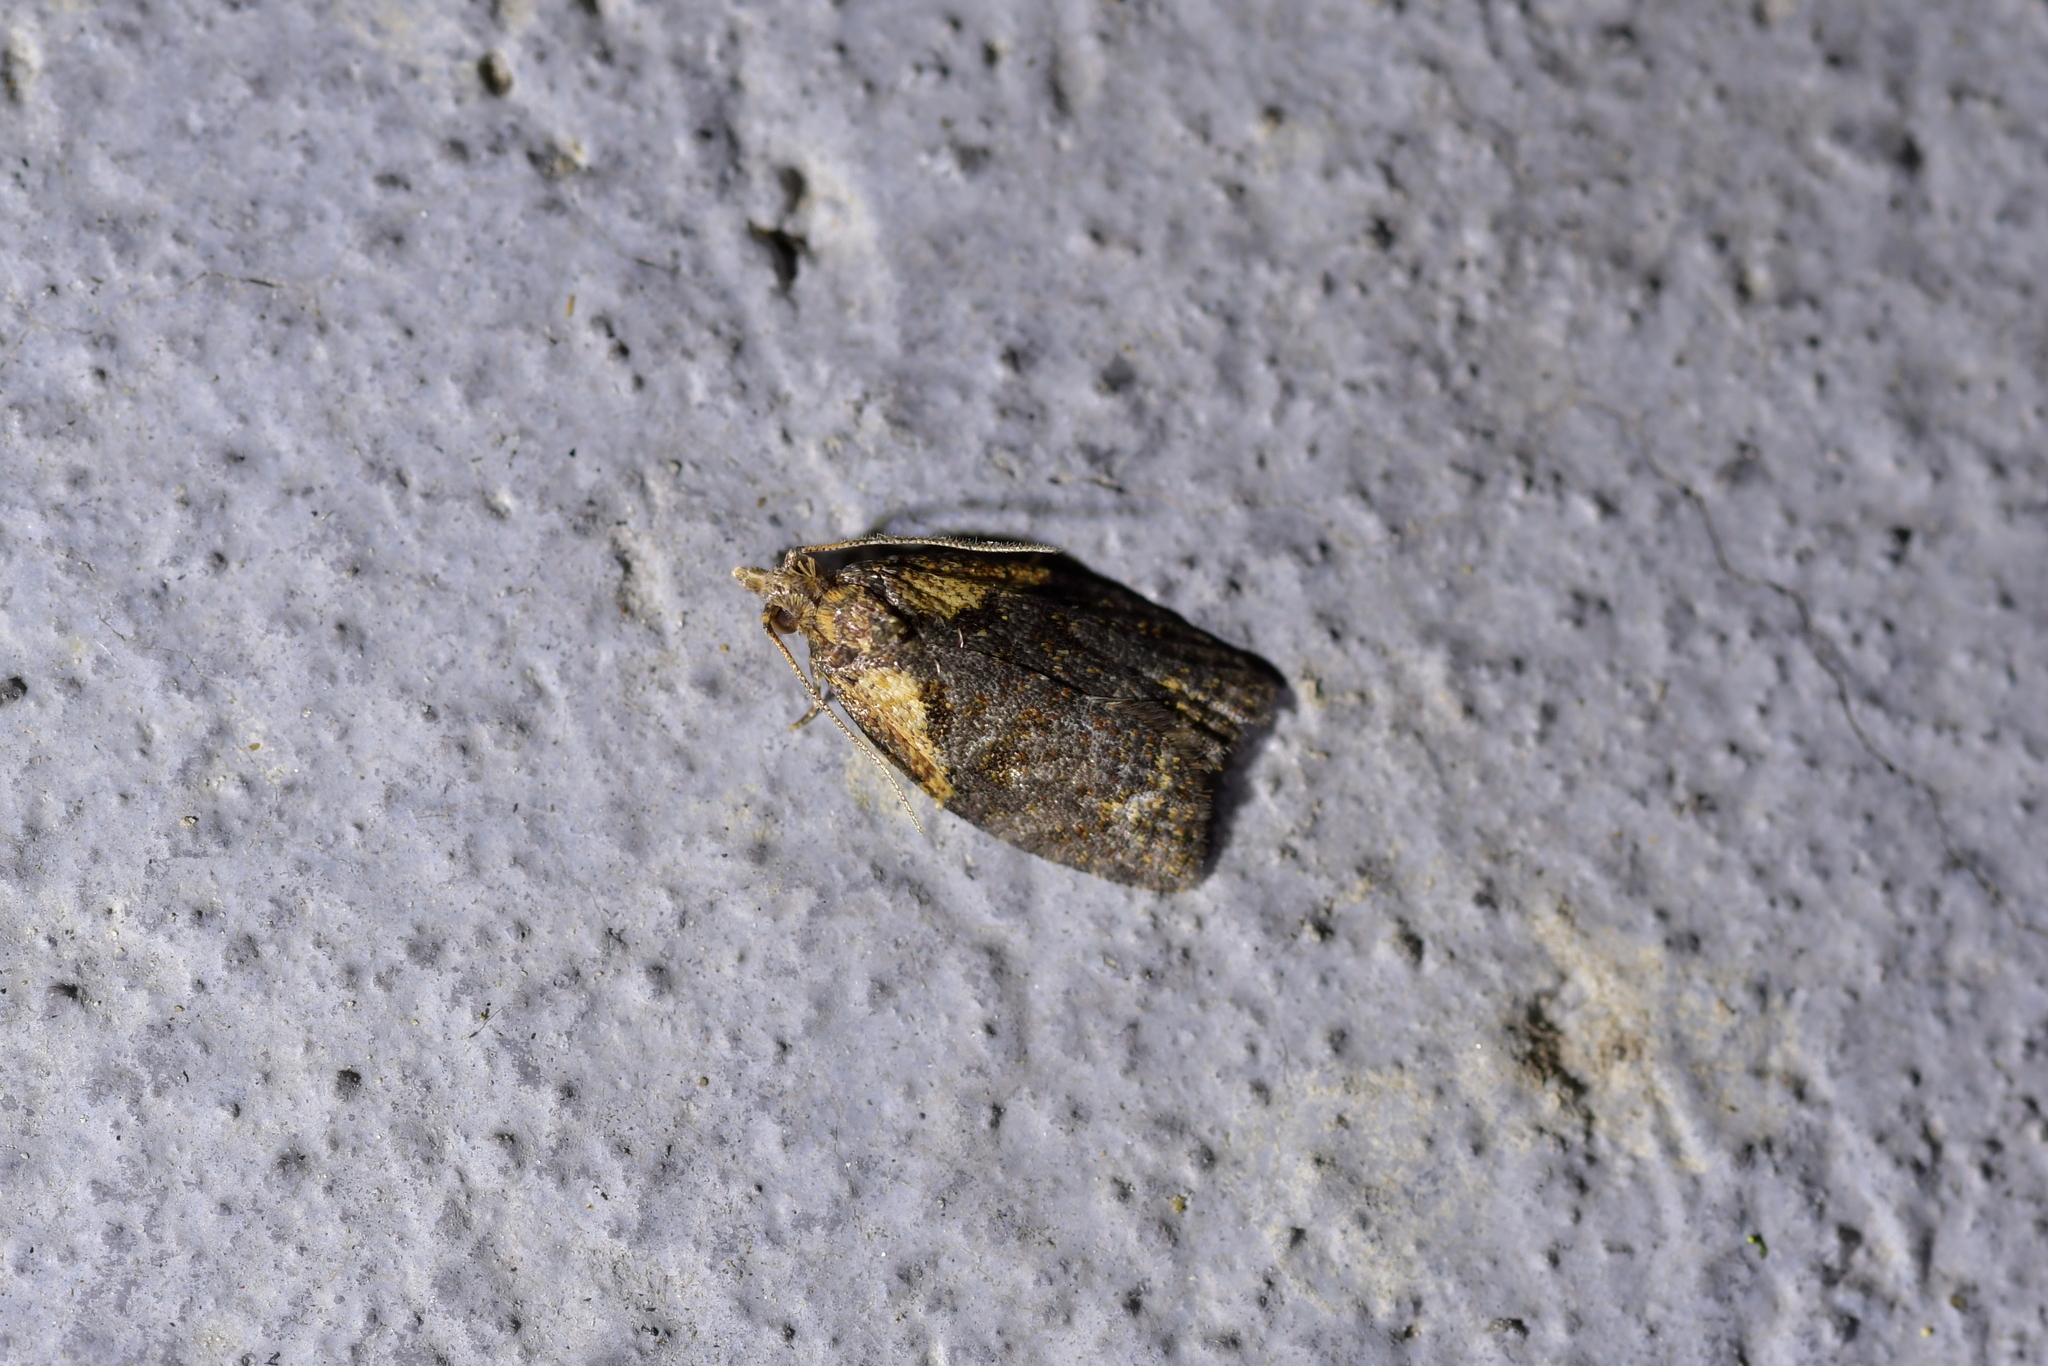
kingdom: Animalia
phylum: Arthropoda
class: Insecta
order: Lepidoptera
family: Tortricidae
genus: Capua
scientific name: Capua intractana
